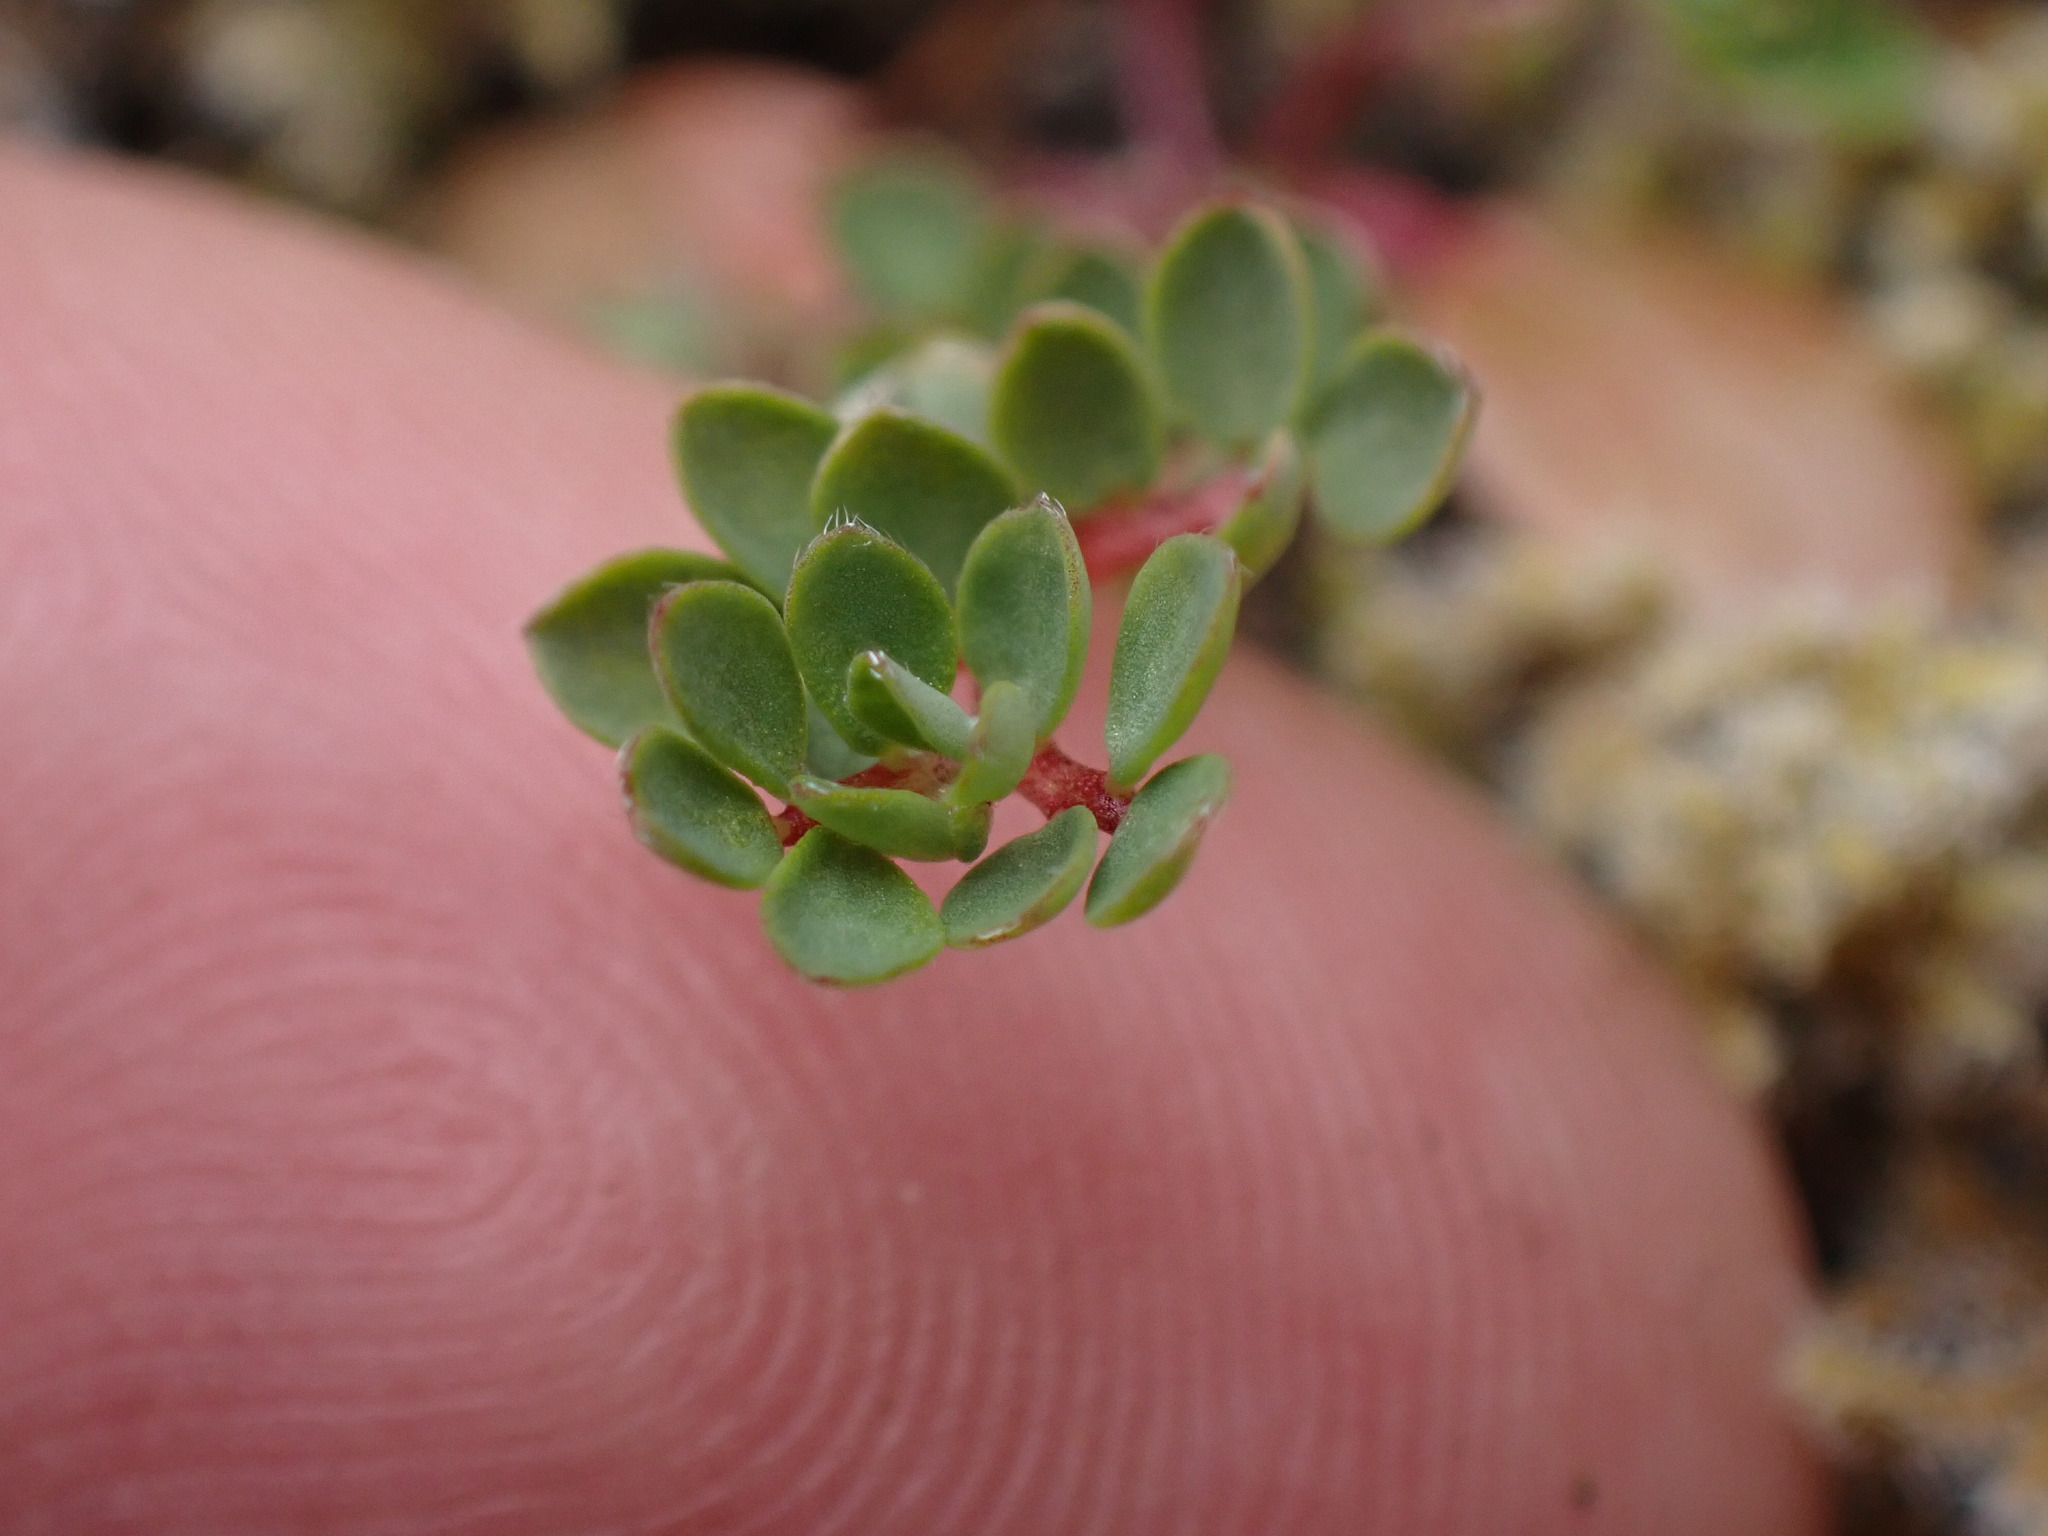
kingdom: Plantae
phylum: Tracheophyta
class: Magnoliopsida
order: Fabales
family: Fabaceae
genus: Acmispon
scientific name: Acmispon parviflorus
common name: Desert deer-vetch
